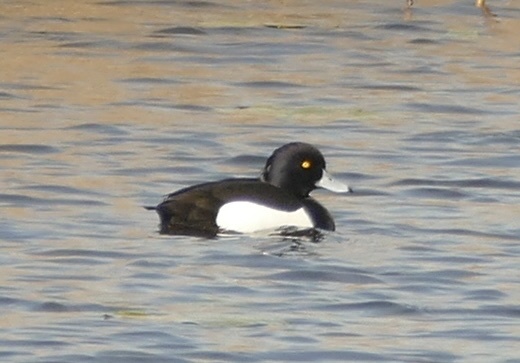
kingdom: Animalia
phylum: Chordata
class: Aves
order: Anseriformes
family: Anatidae
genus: Aythya
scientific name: Aythya fuligula
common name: Tufted duck
